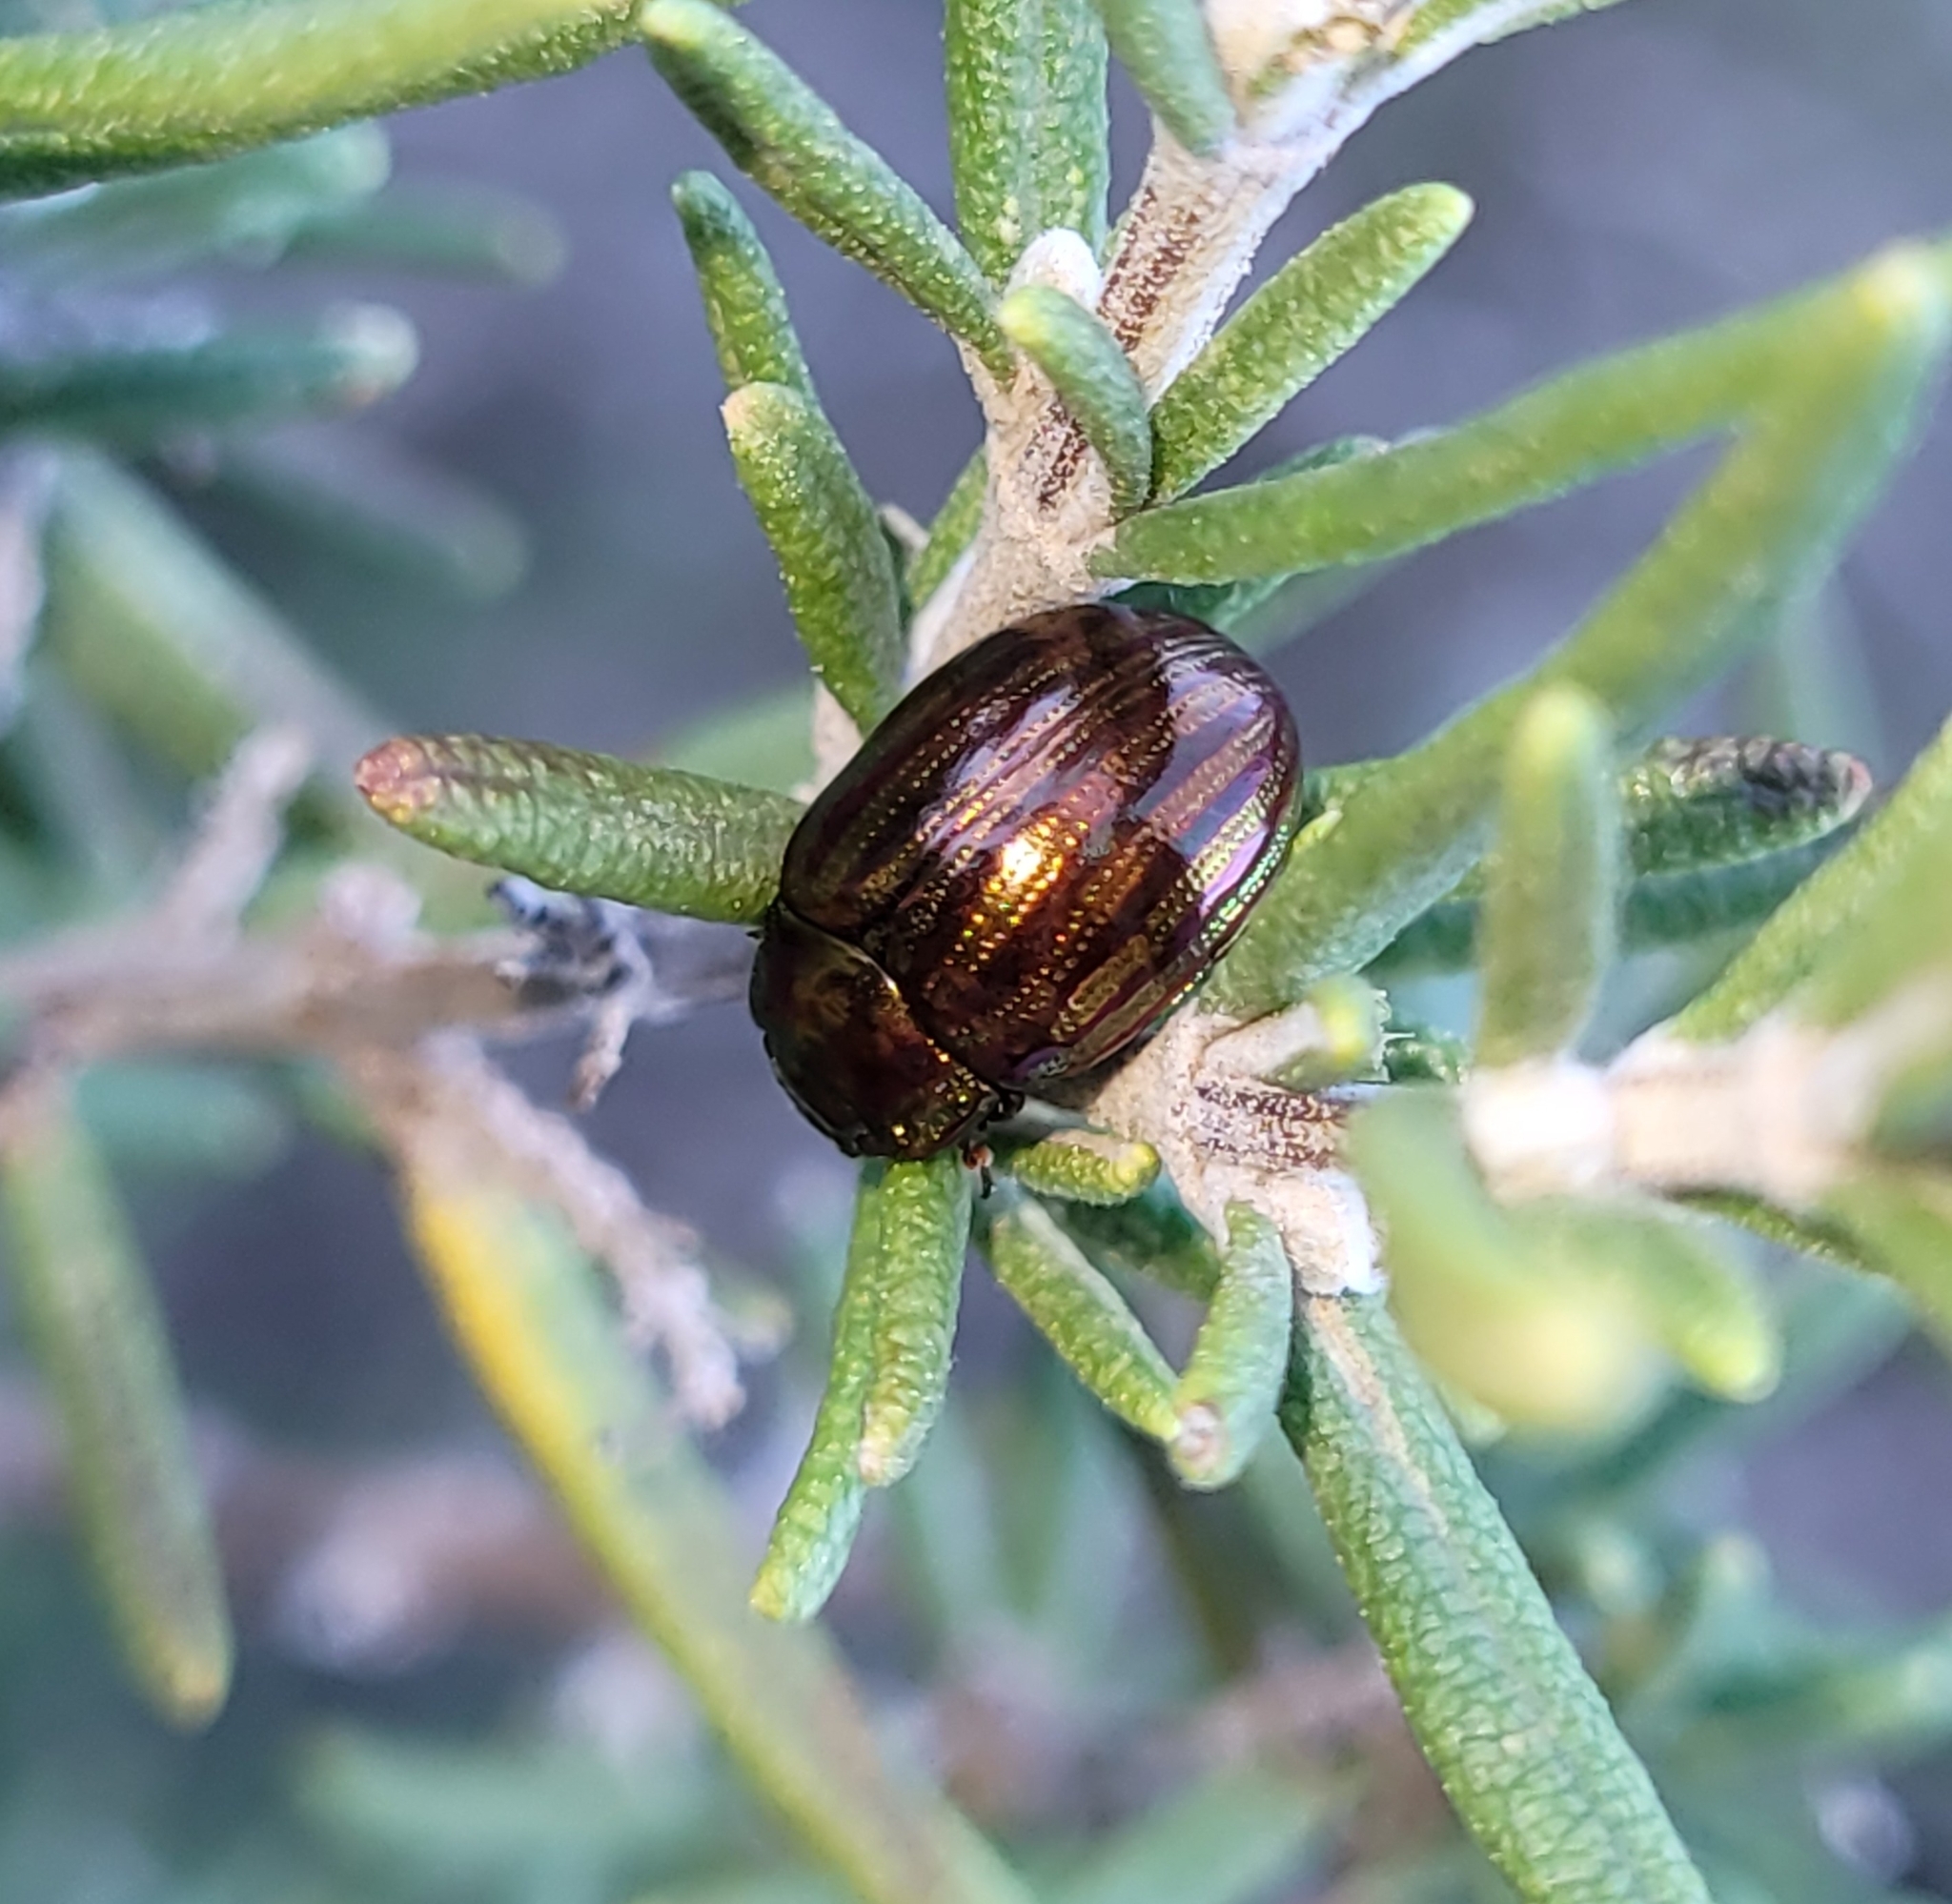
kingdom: Animalia
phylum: Arthropoda
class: Insecta
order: Coleoptera
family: Chrysomelidae
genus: Chrysolina
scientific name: Chrysolina americana
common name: Rosemary beetle
